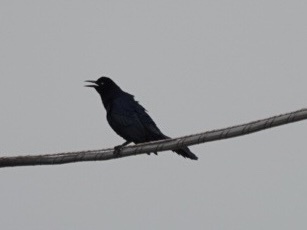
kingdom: Animalia
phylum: Chordata
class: Aves
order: Passeriformes
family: Icteridae
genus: Quiscalus
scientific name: Quiscalus mexicanus
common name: Great-tailed grackle
